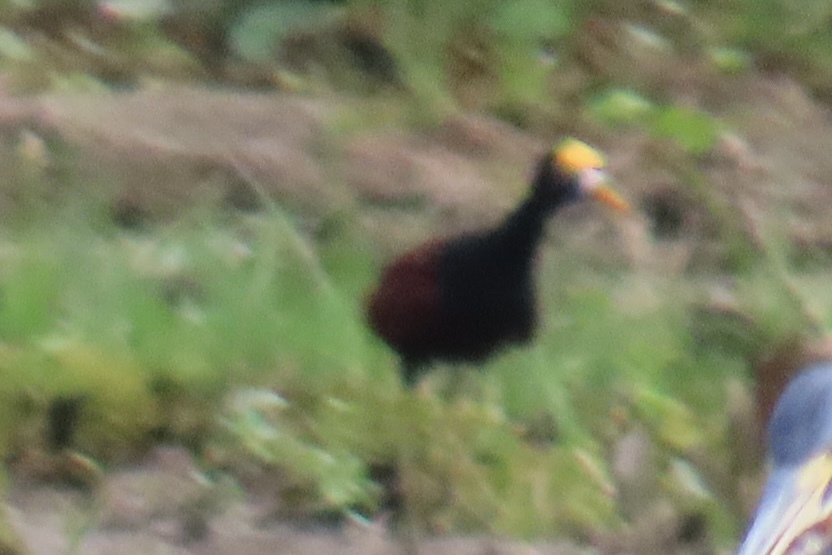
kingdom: Animalia
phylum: Chordata
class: Aves
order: Charadriiformes
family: Jacanidae
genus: Jacana
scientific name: Jacana spinosa
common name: Northern jacana
